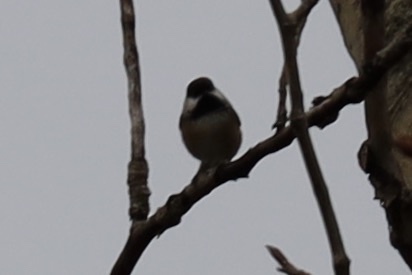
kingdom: Animalia
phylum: Chordata
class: Aves
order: Passeriformes
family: Paridae
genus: Poecile
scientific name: Poecile atricapillus
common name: Black-capped chickadee
